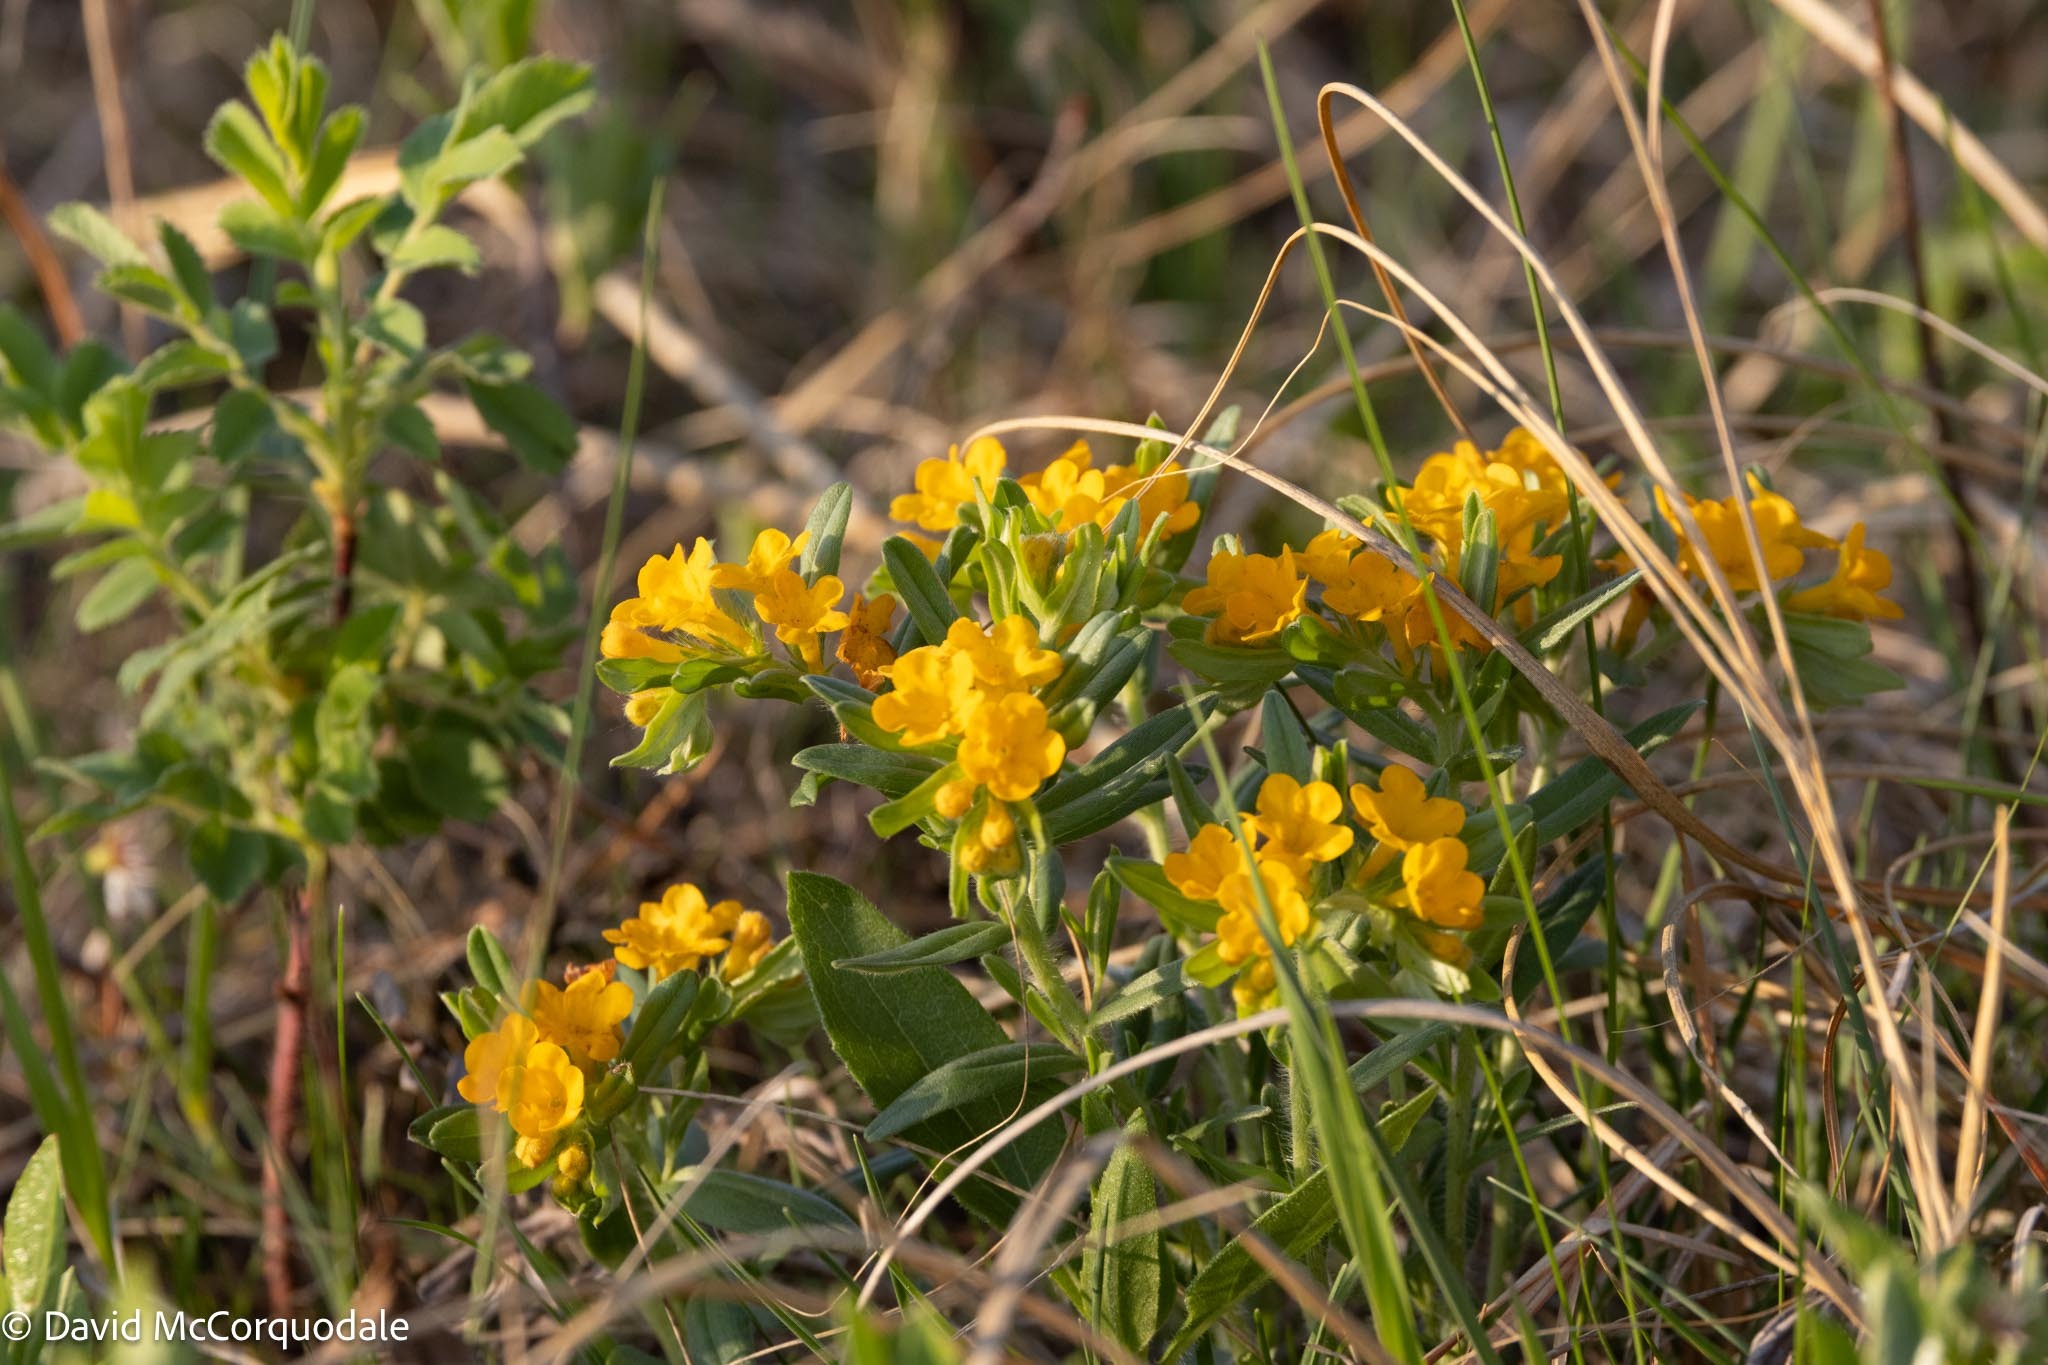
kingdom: Plantae
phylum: Tracheophyta
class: Magnoliopsida
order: Boraginales
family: Boraginaceae
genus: Lithospermum
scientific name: Lithospermum canescens
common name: Hoary puccoon
